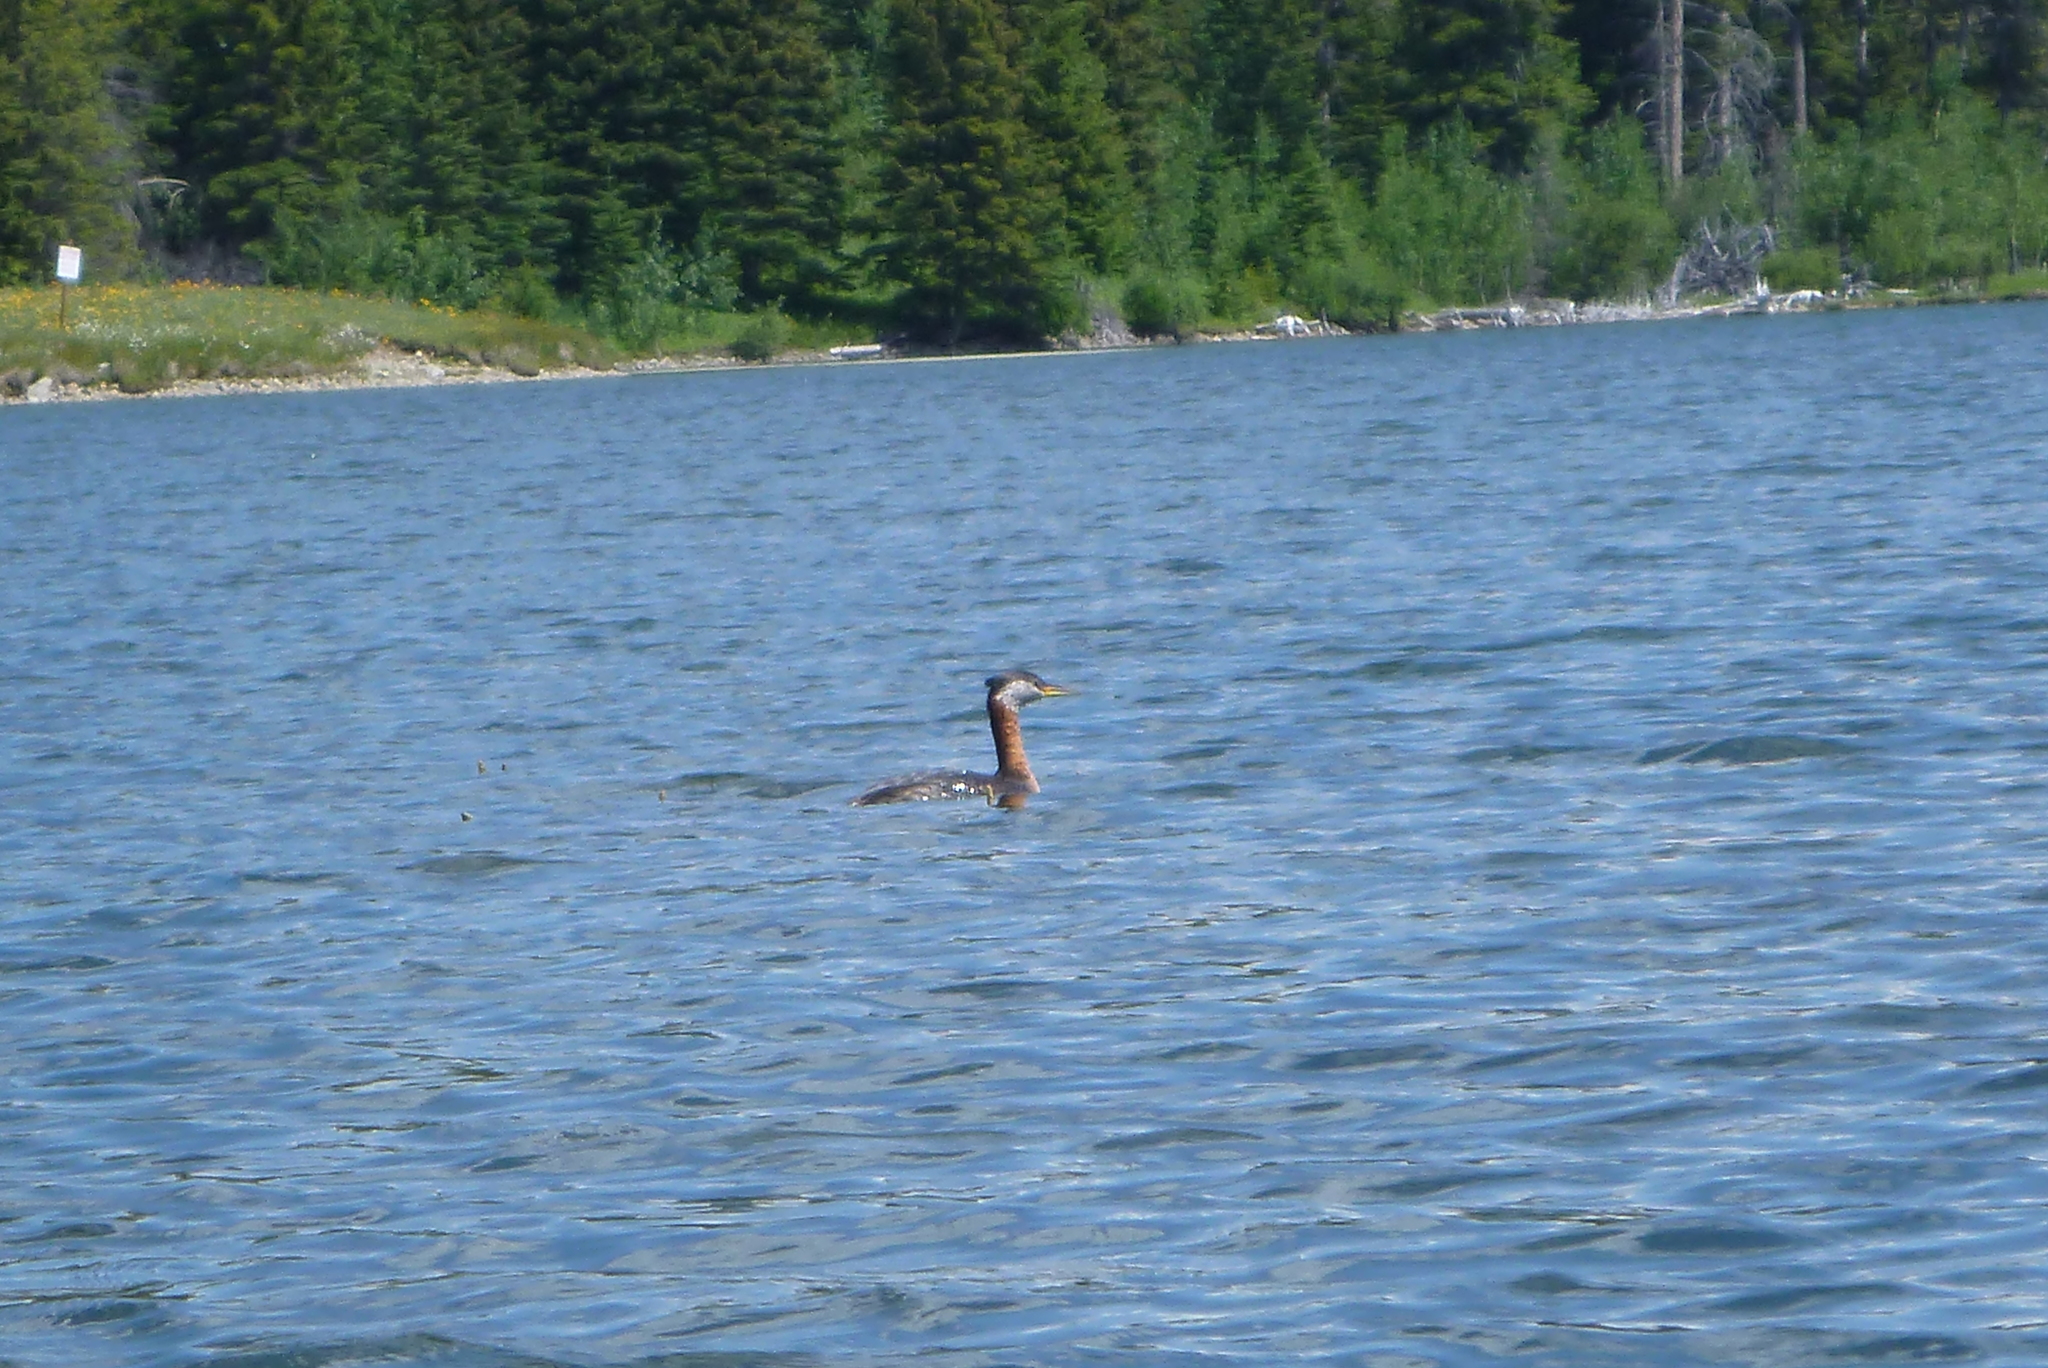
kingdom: Animalia
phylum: Chordata
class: Aves
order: Podicipediformes
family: Podicipedidae
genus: Podiceps
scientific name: Podiceps grisegena
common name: Red-necked grebe
